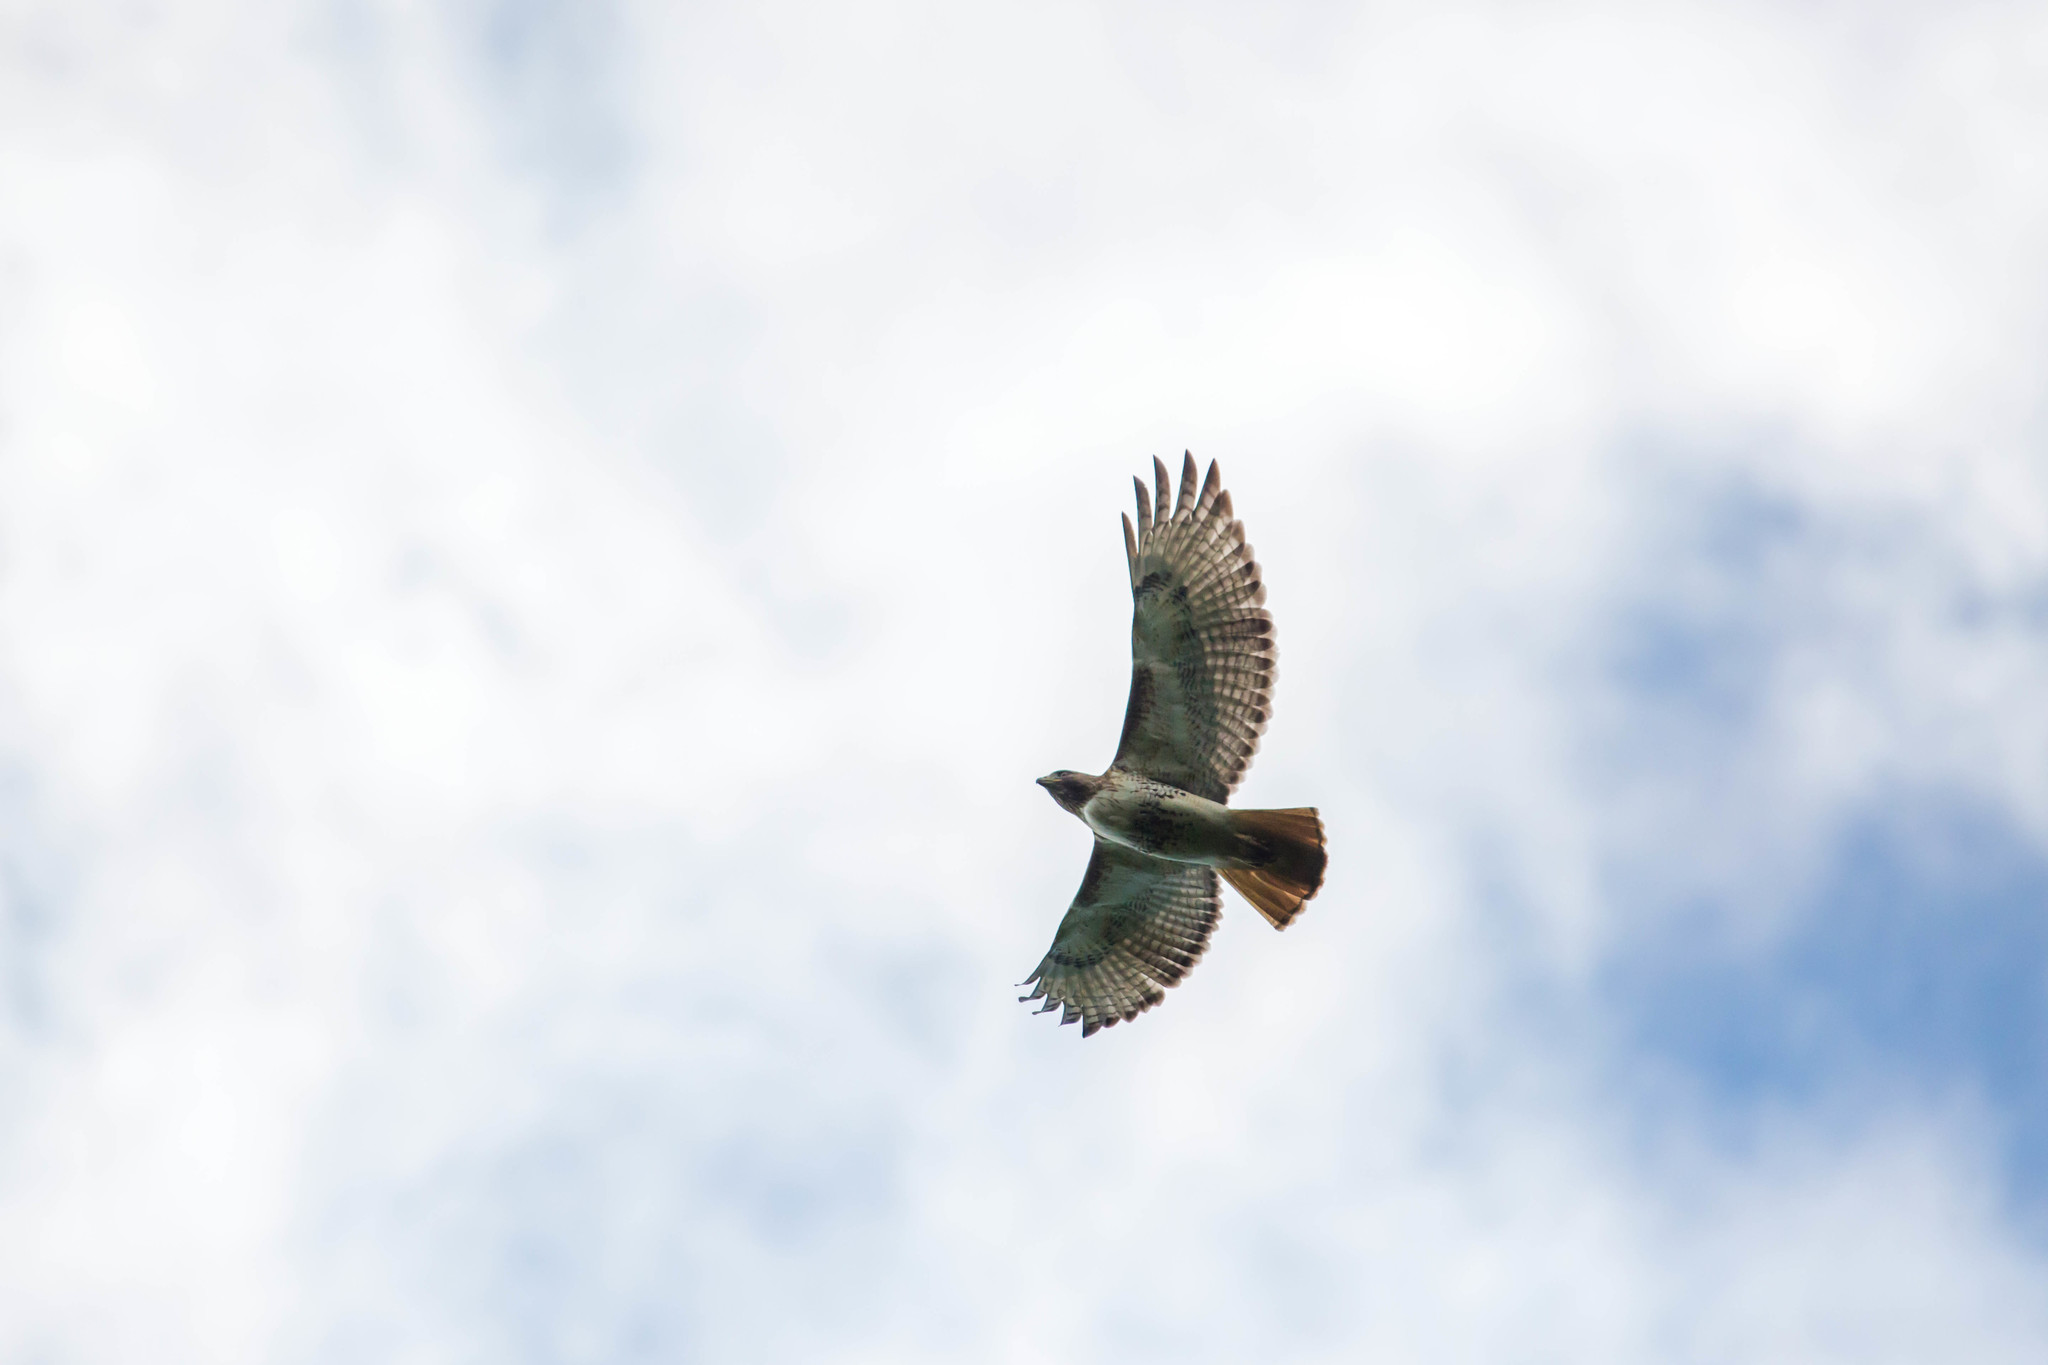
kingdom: Animalia
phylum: Chordata
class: Aves
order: Accipitriformes
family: Accipitridae
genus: Buteo
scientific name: Buteo jamaicensis
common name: Red-tailed hawk
